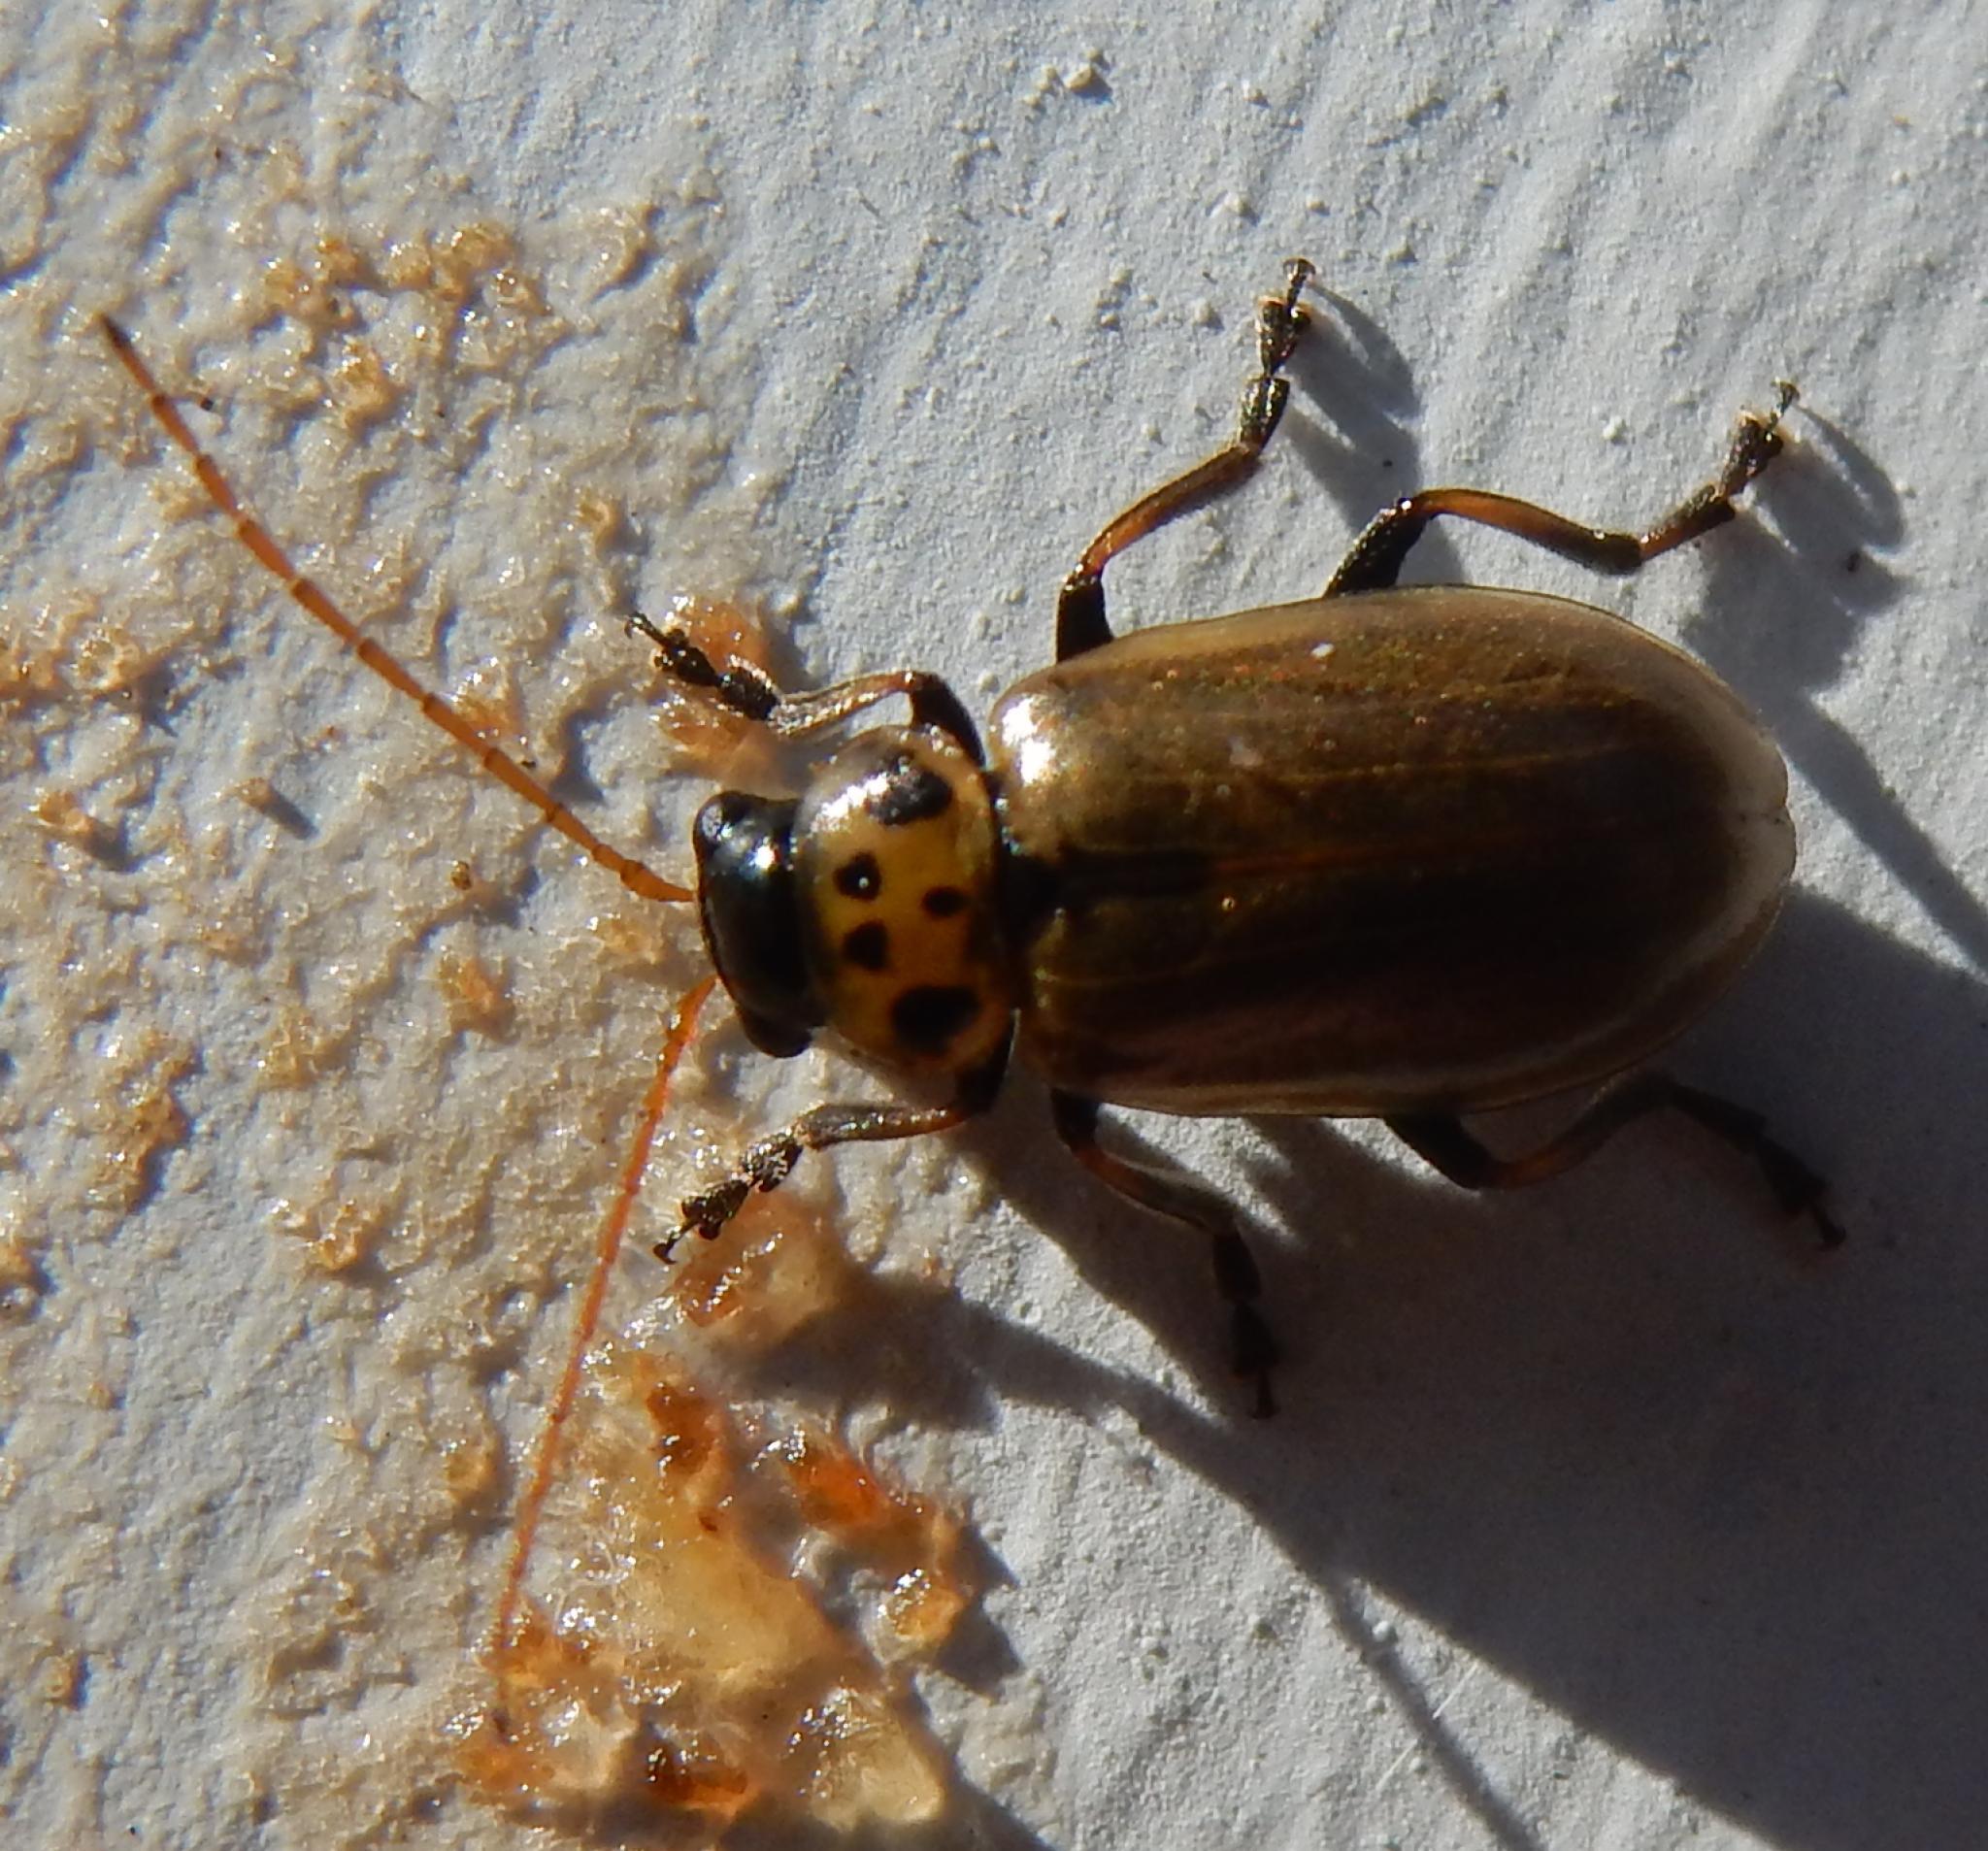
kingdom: Animalia
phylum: Arthropoda
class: Insecta
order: Coleoptera
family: Chrysomelidae
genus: Palaeophylia
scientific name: Palaeophylia
